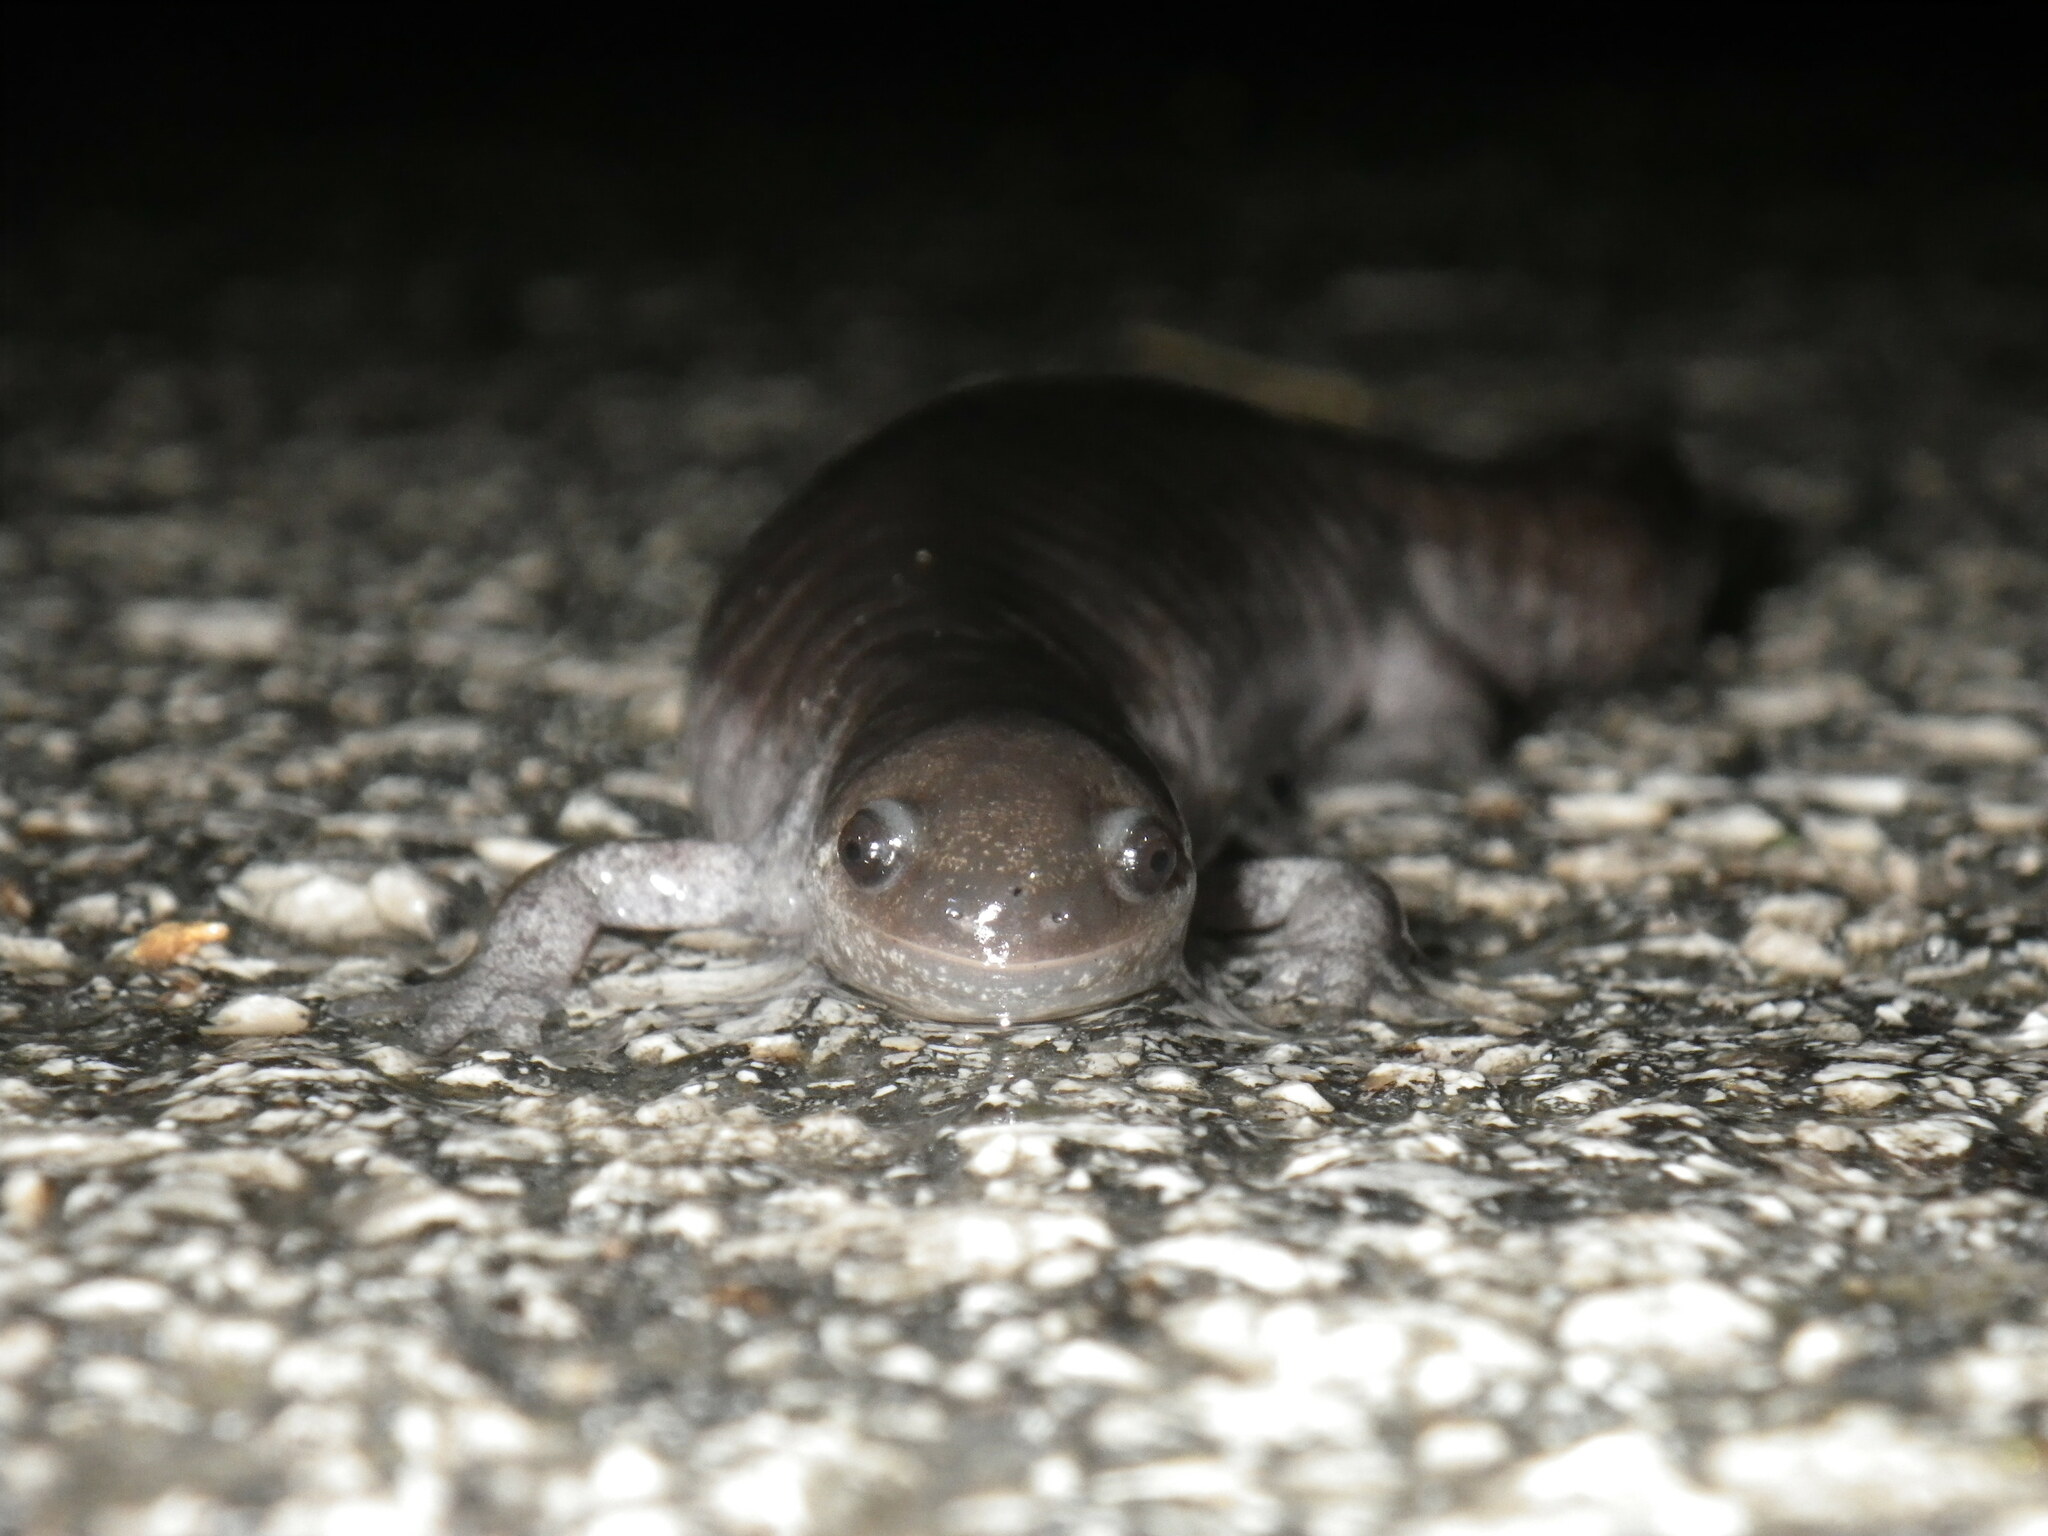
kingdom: Animalia
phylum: Chordata
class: Amphibia
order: Caudata
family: Ambystomatidae
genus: Ambystoma
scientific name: Ambystoma texanum
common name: Small-mouth salamander
